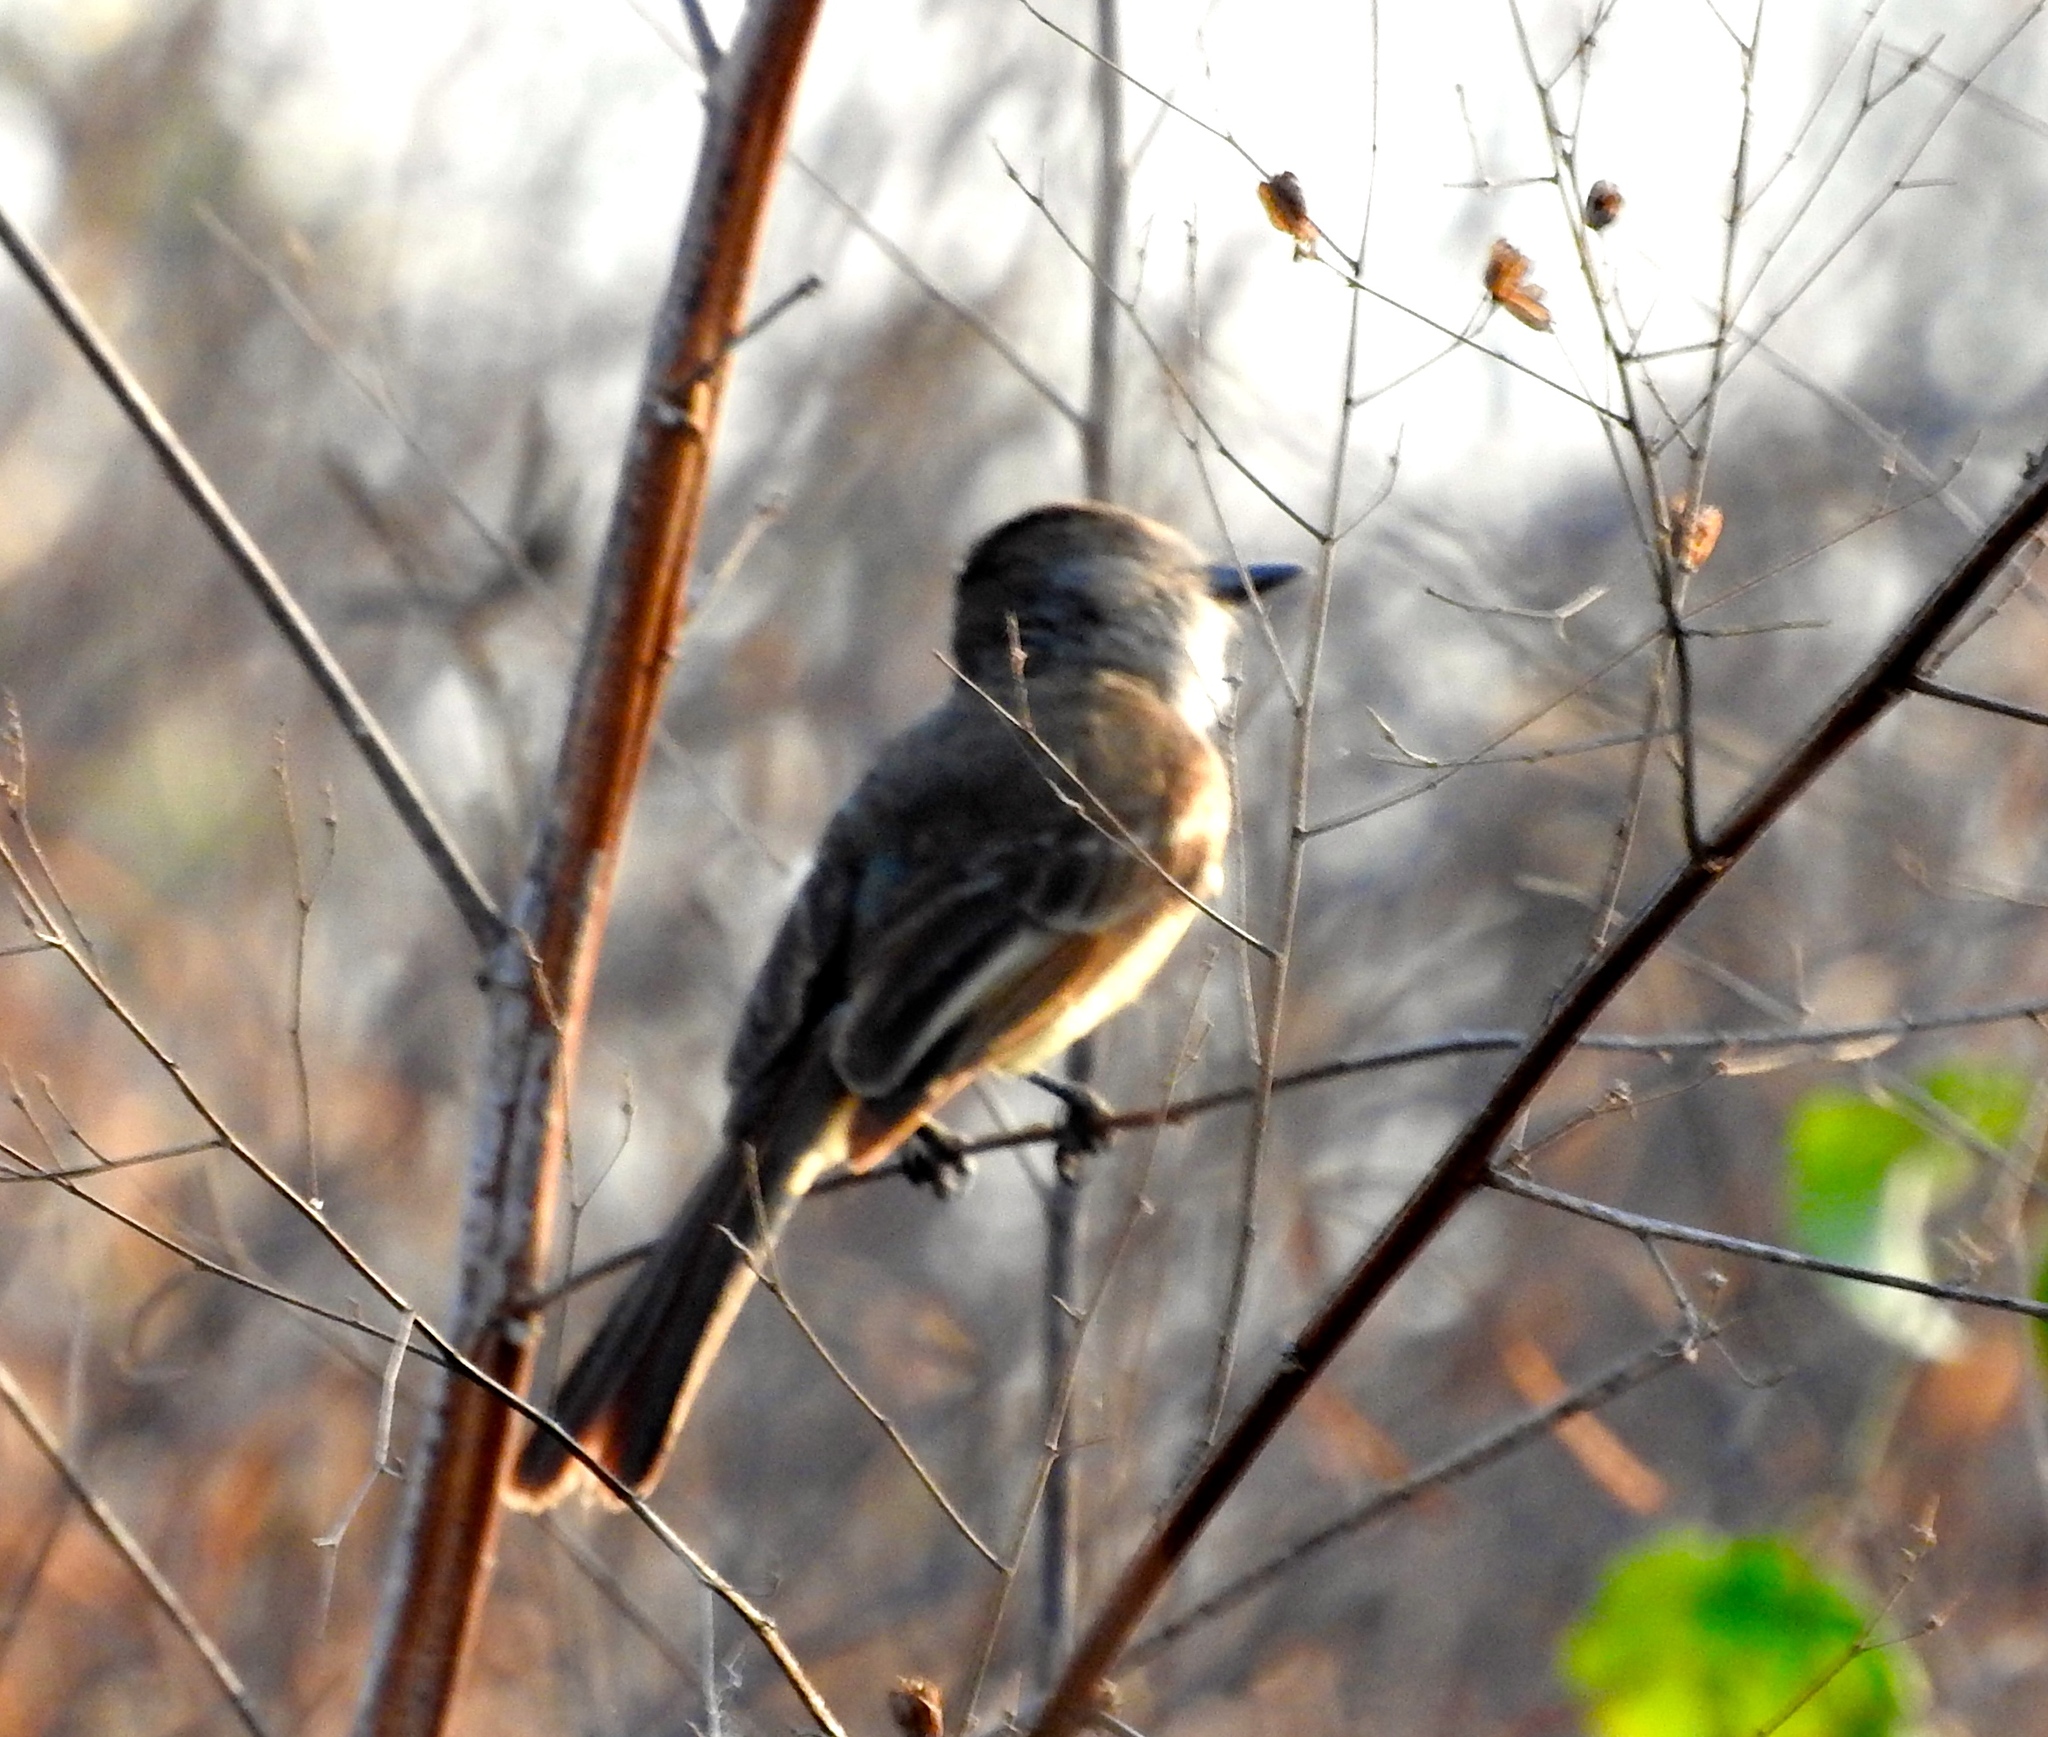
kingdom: Animalia
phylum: Chordata
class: Aves
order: Passeriformes
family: Tyrannidae
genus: Myiarchus
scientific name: Myiarchus
